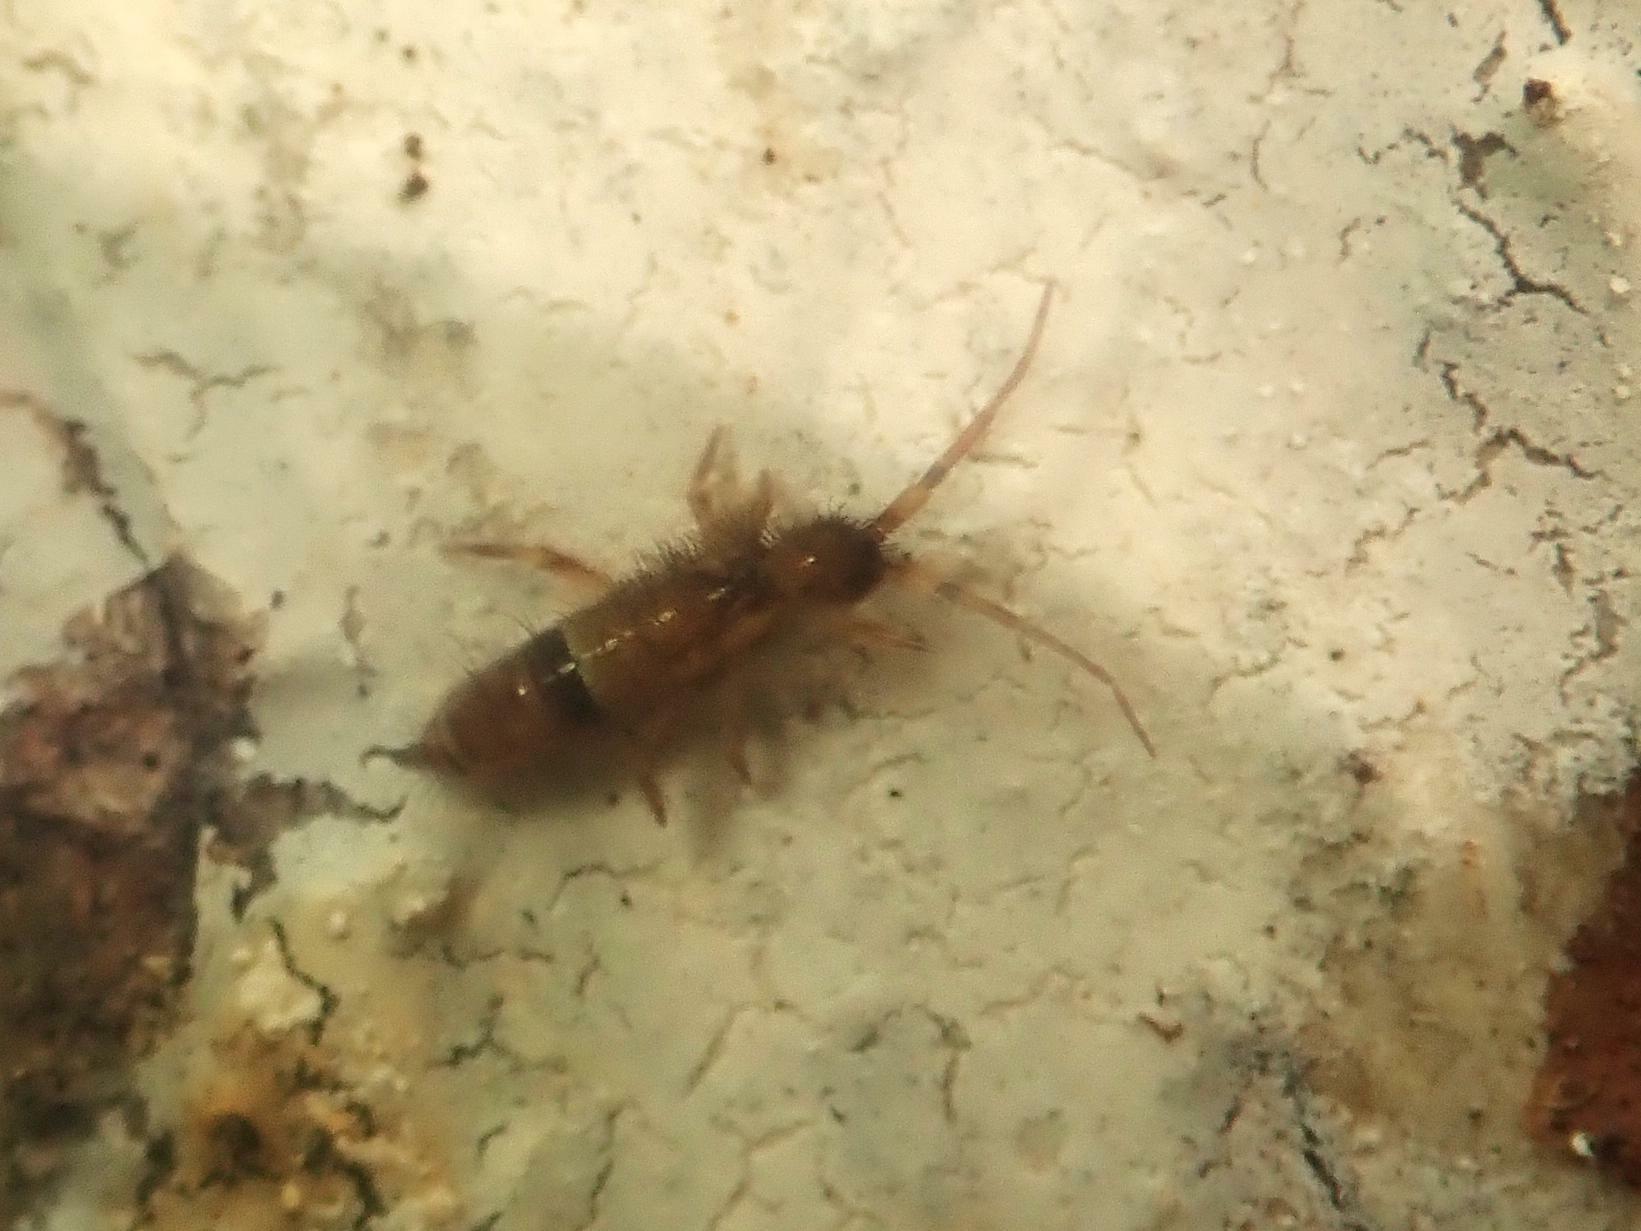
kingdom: Animalia
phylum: Arthropoda
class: Collembola
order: Entomobryomorpha
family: Orchesellidae
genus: Orchesella
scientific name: Orchesella cincta
